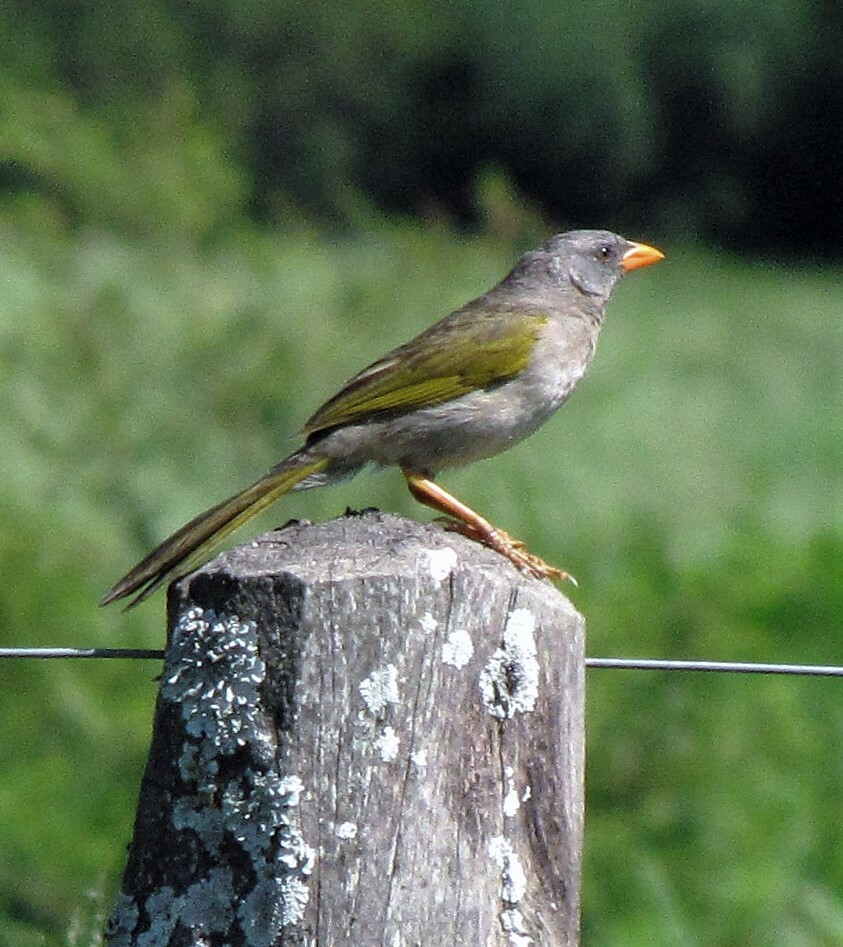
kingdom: Animalia
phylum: Chordata
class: Aves
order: Passeriformes
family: Thraupidae
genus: Embernagra
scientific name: Embernagra platensis
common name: Pampa finch
